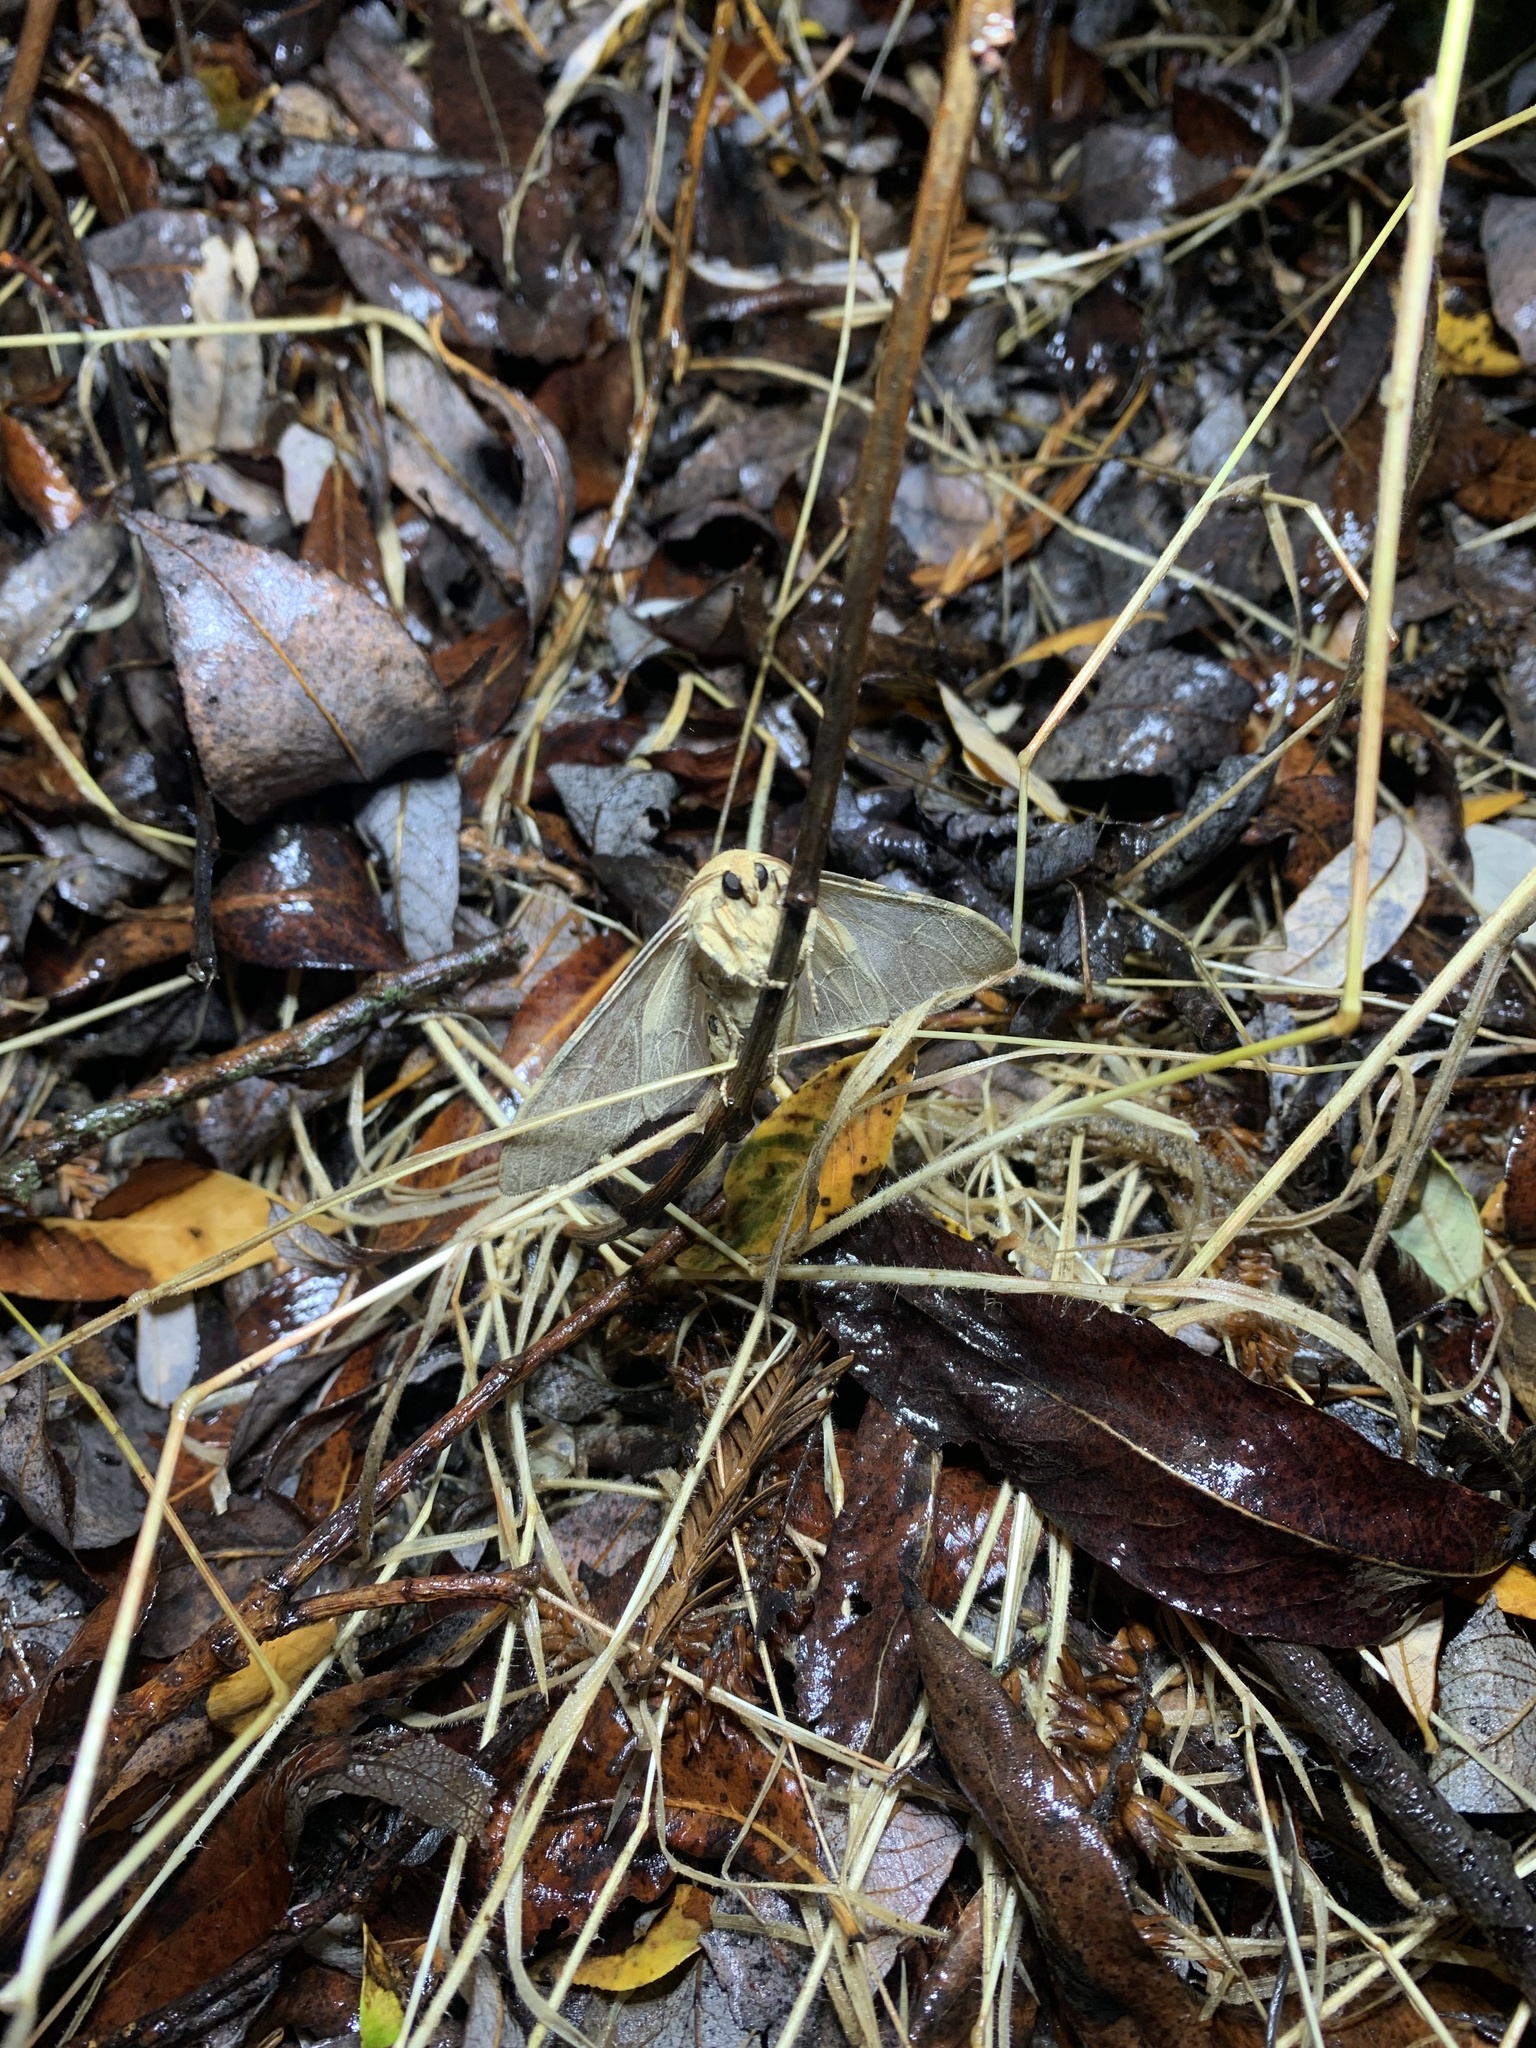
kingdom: Animalia
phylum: Arthropoda
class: Insecta
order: Lepidoptera
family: Erebidae
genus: Hemihyalea
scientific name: Hemihyalea edwardsii
